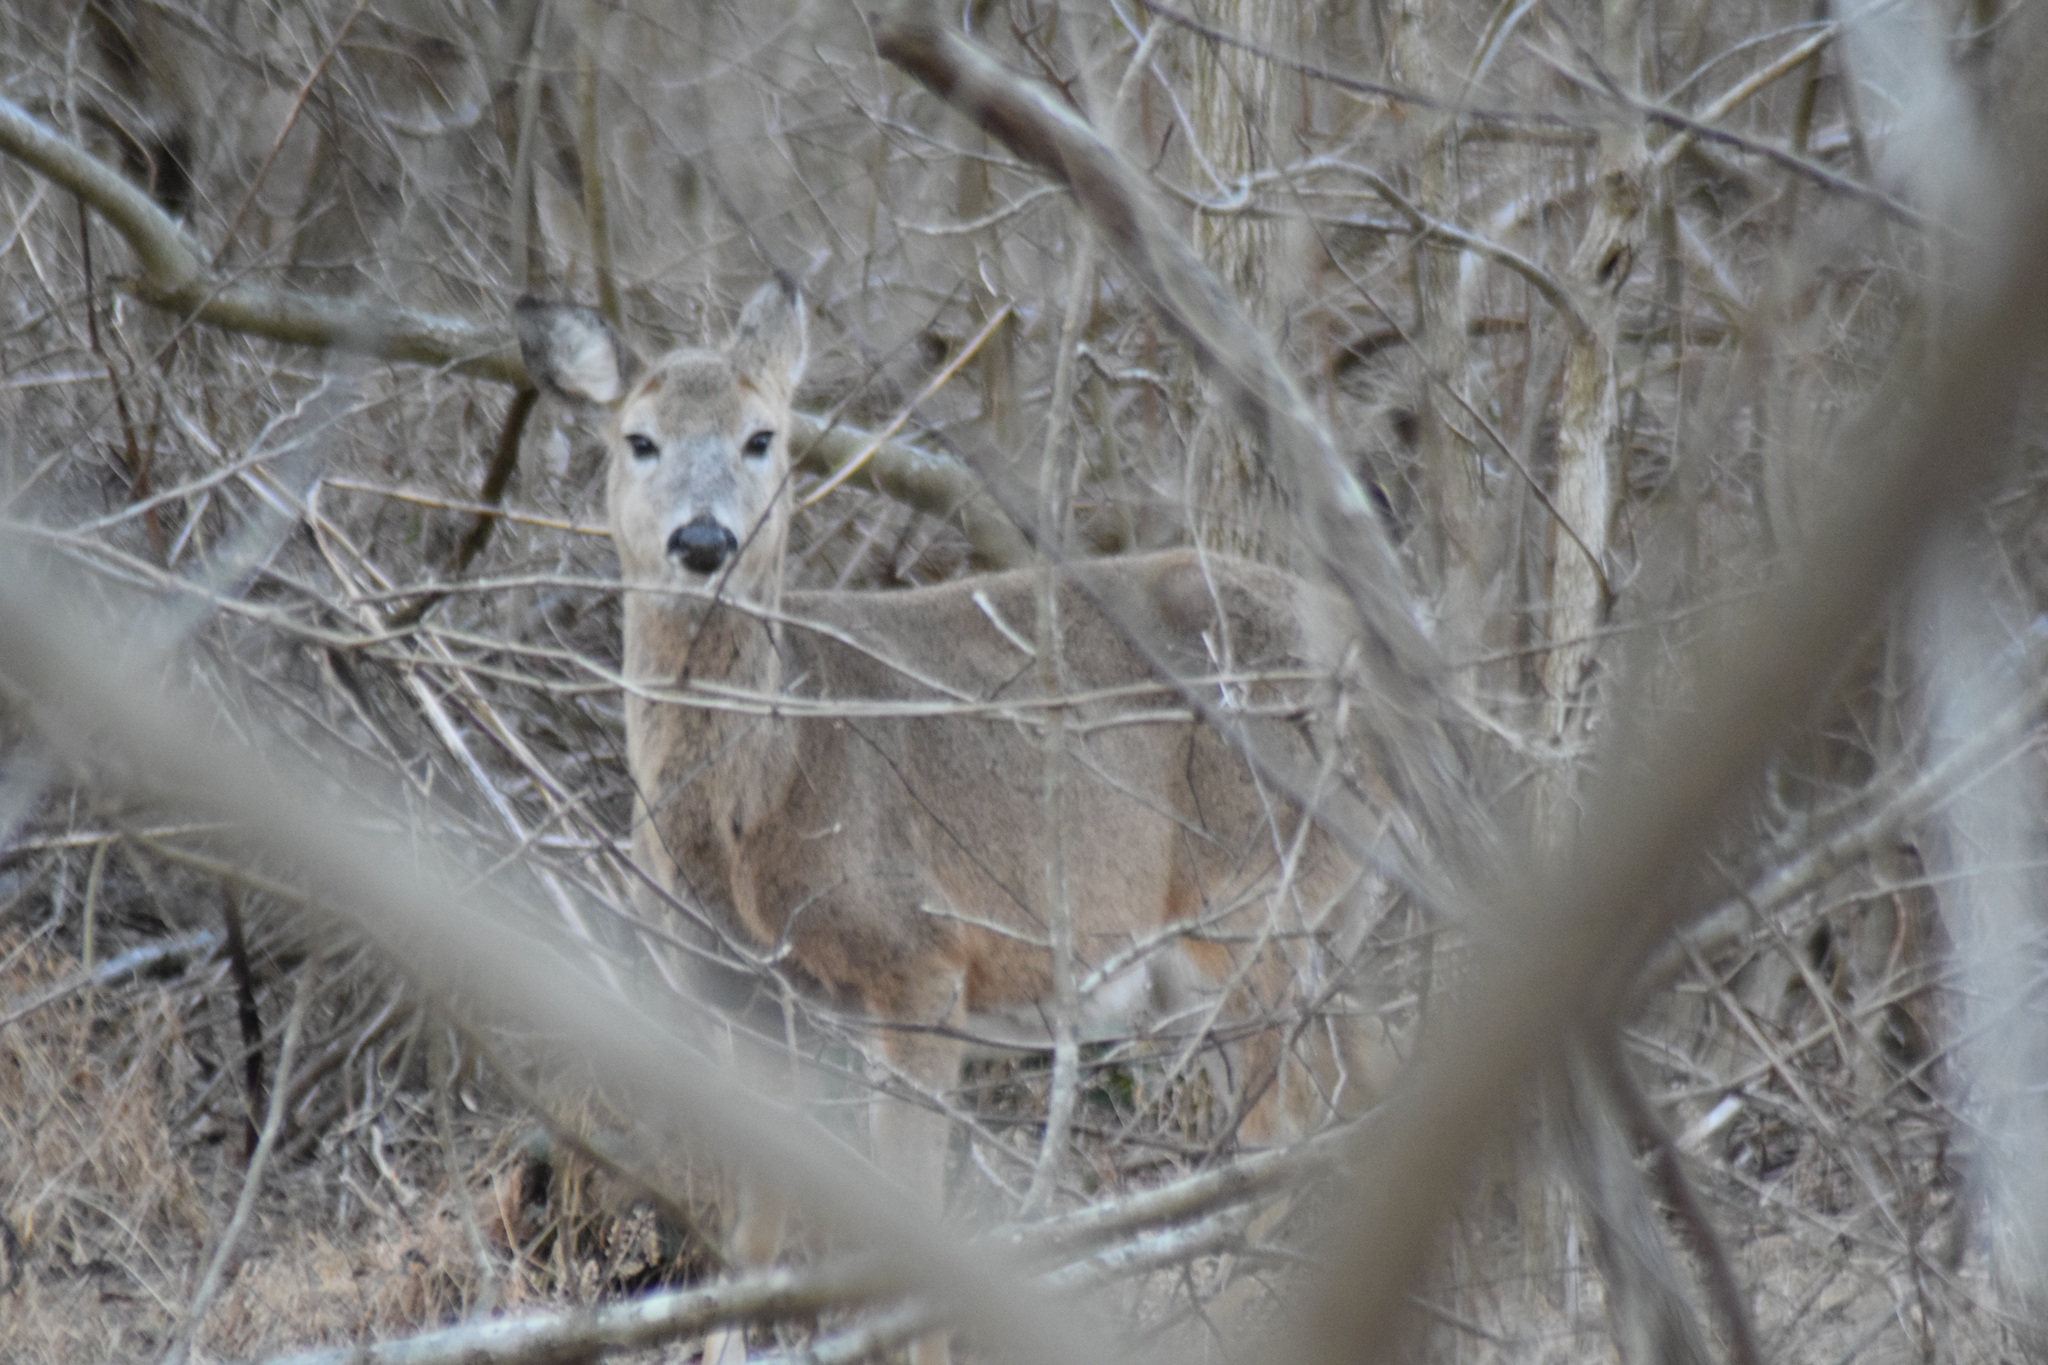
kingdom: Animalia
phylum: Chordata
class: Mammalia
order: Artiodactyla
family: Cervidae
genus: Odocoileus
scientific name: Odocoileus virginianus
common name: White-tailed deer
